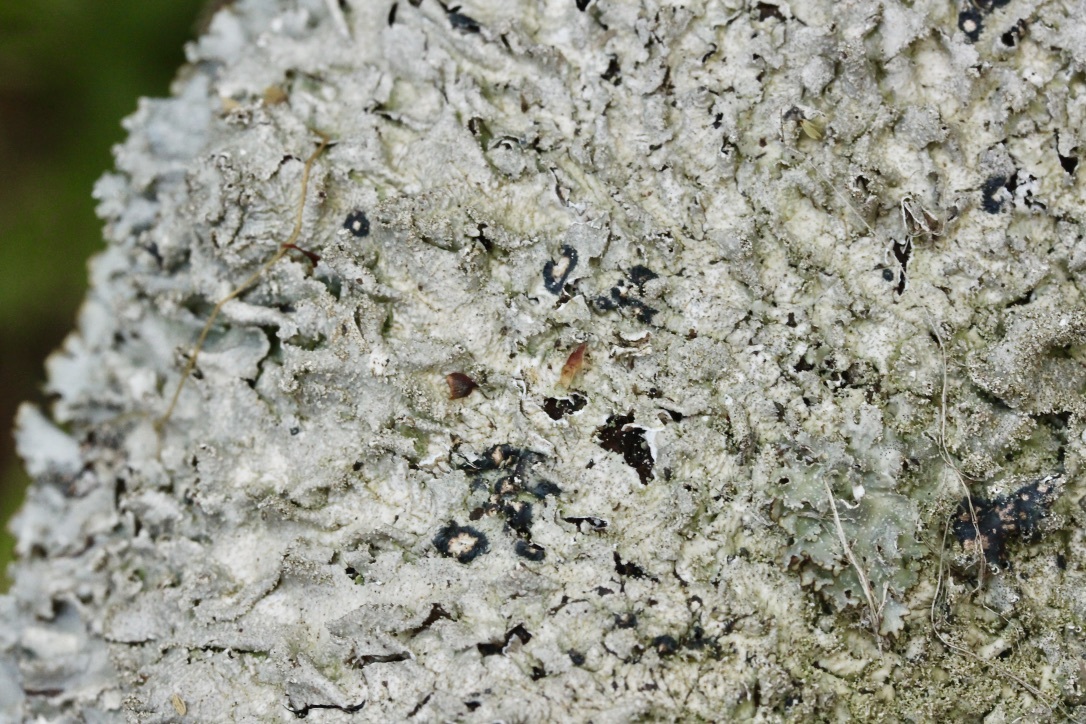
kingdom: Fungi
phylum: Ascomycota
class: Lecanoromycetes
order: Lecanorales
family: Parmeliaceae
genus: Punctelia
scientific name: Punctelia rudecta
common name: Rough speckled shield lichen
